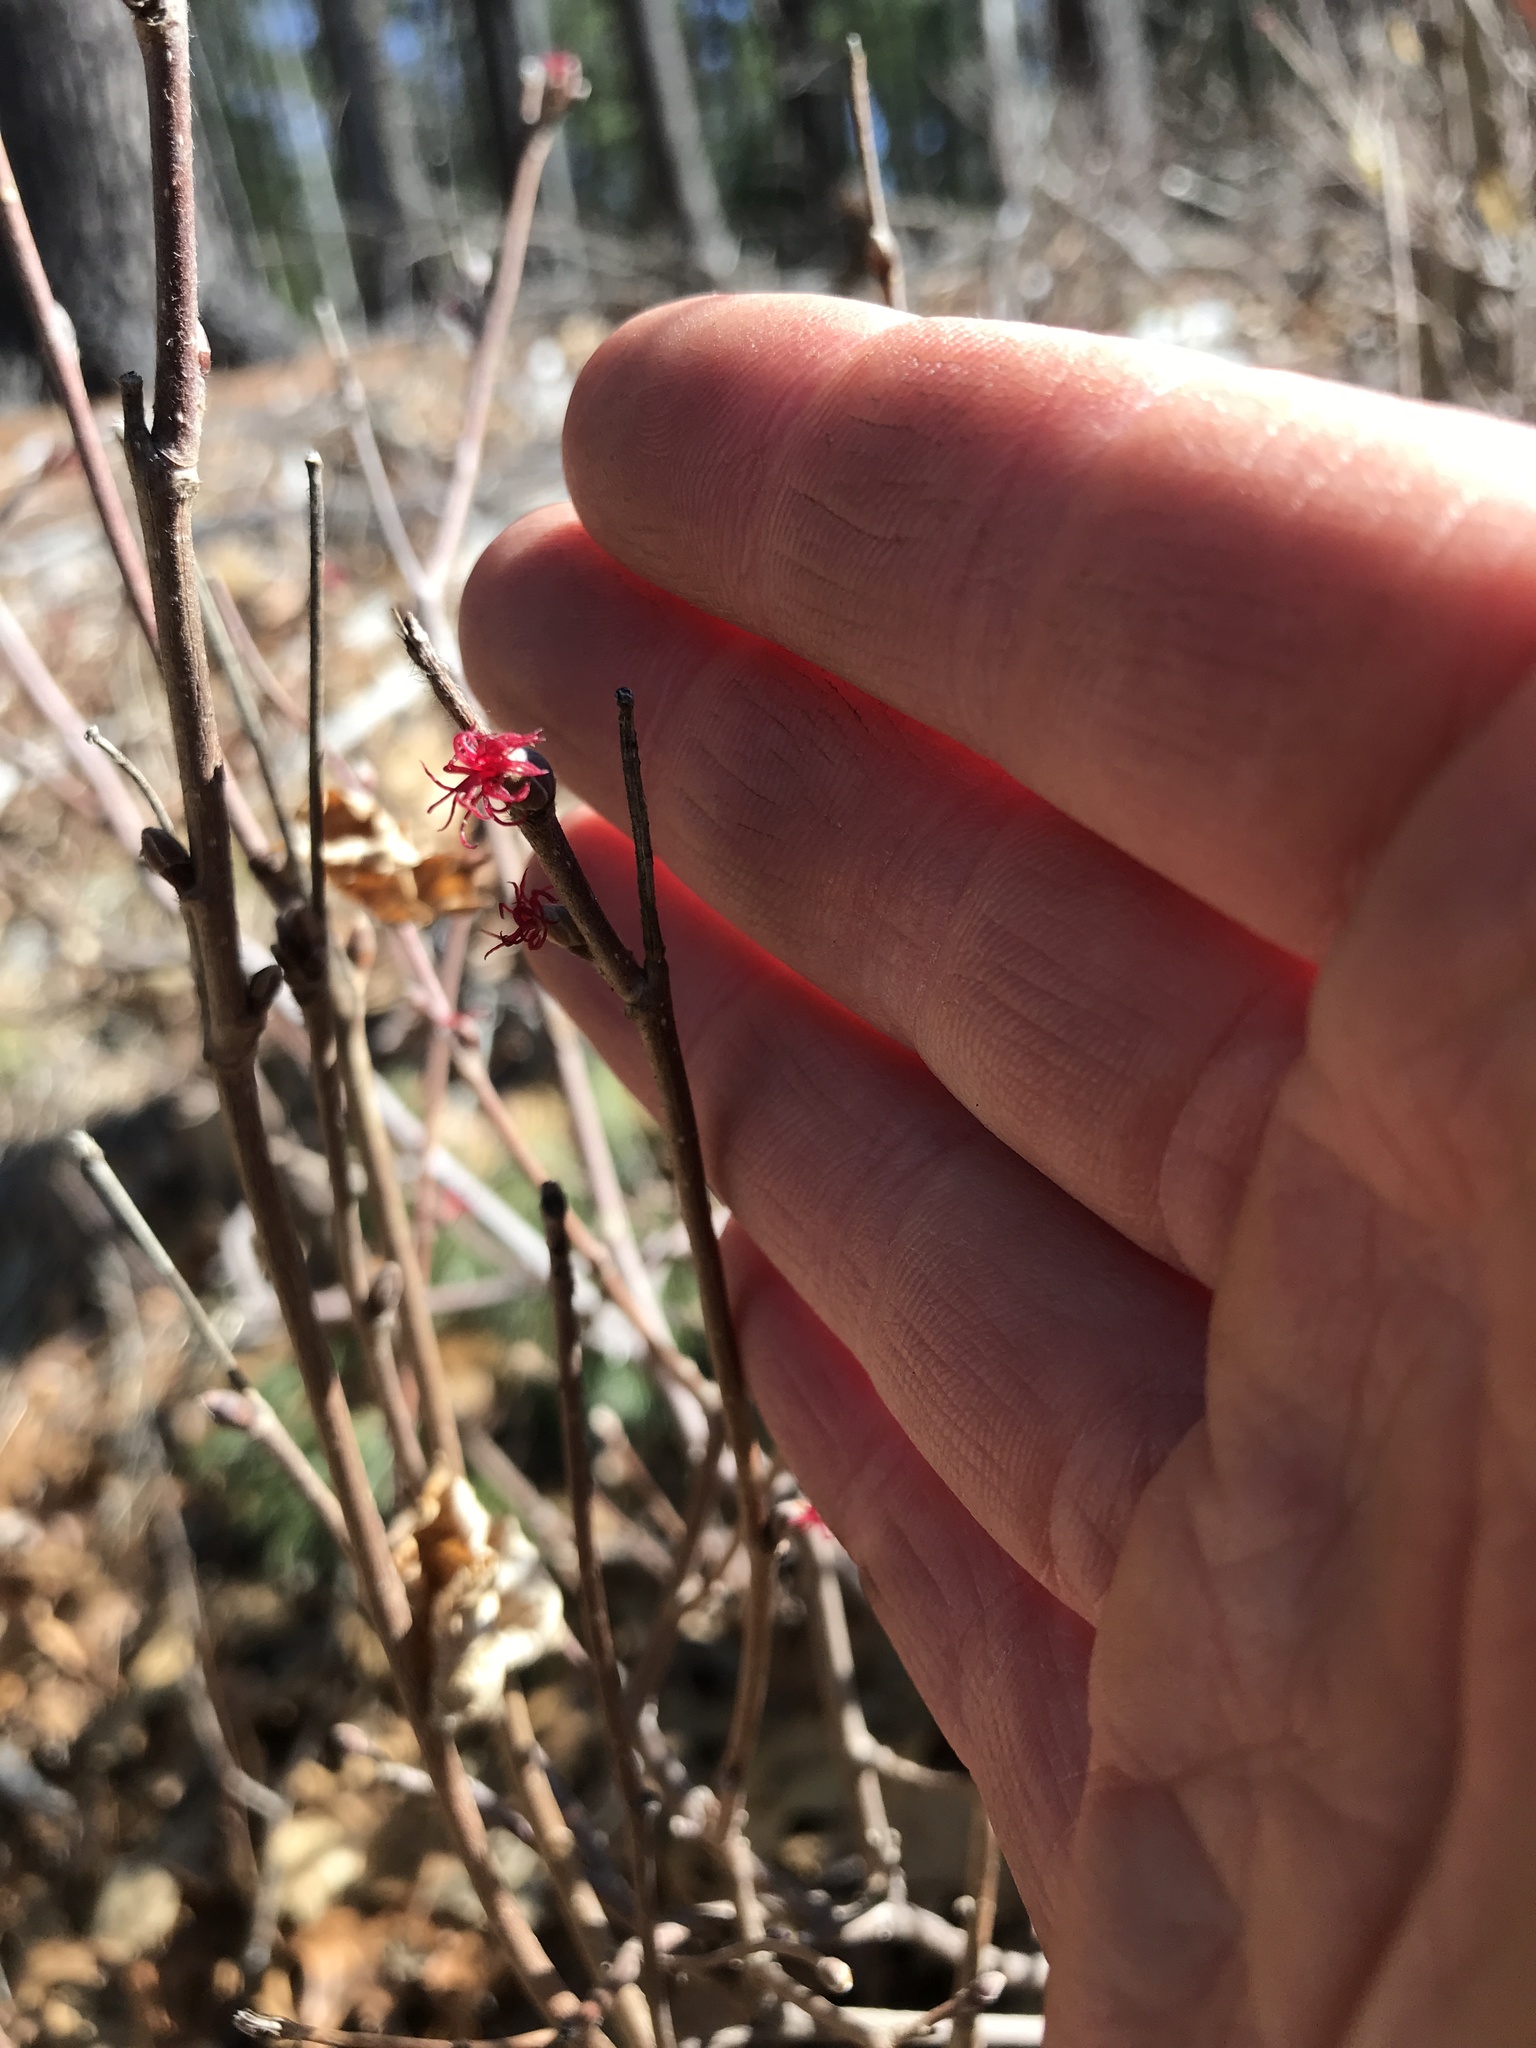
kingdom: Plantae
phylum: Tracheophyta
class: Magnoliopsida
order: Fagales
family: Betulaceae
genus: Corylus
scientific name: Corylus americana
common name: American hazel
